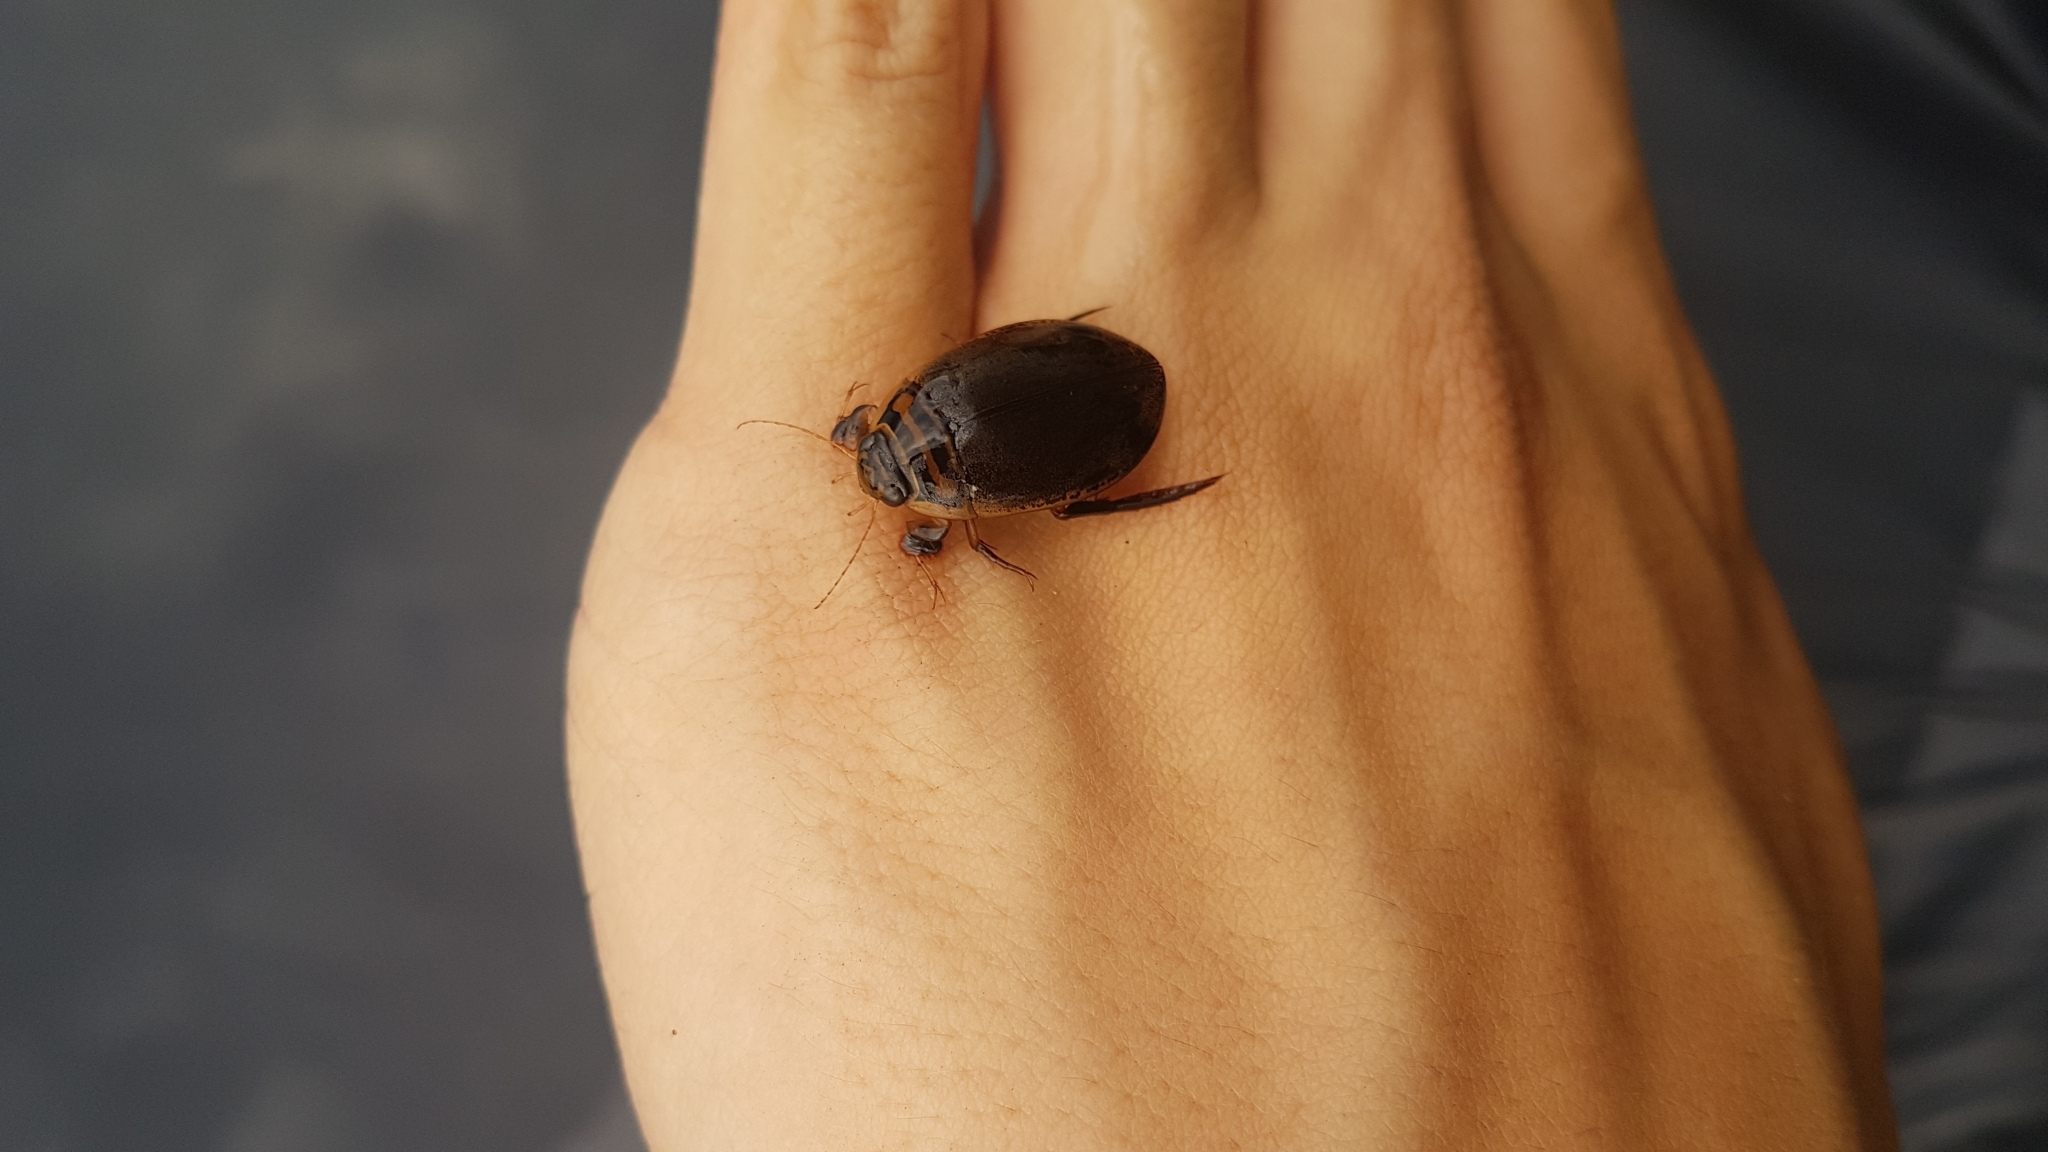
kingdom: Animalia
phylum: Arthropoda
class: Insecta
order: Coleoptera
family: Dytiscidae
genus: Acilius
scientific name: Acilius sulcatus
